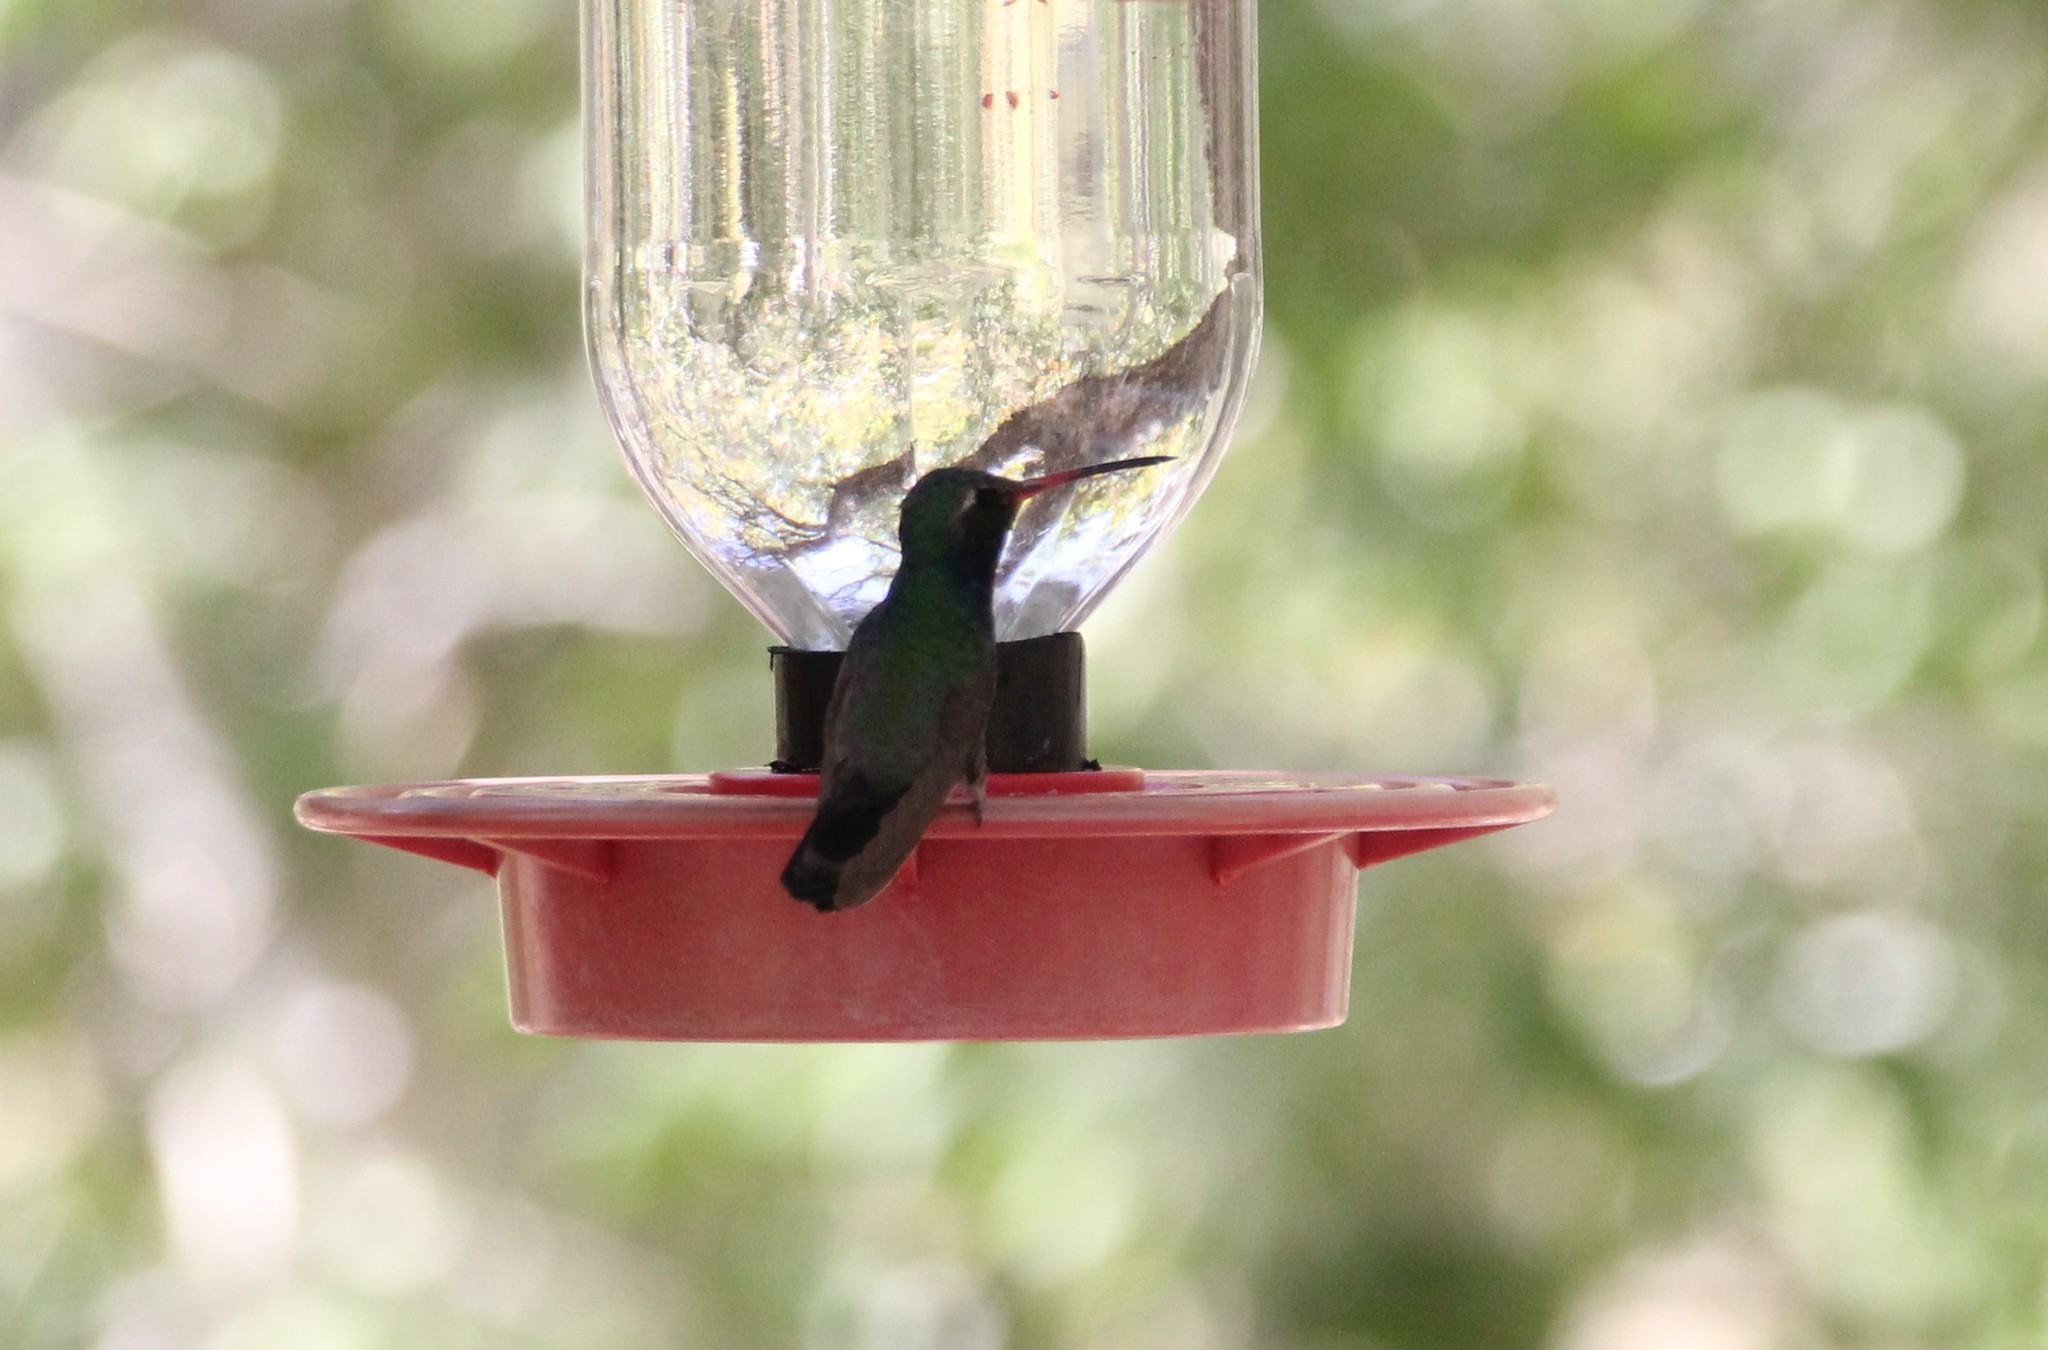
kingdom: Animalia
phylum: Chordata
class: Aves
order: Apodiformes
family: Trochilidae
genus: Cynanthus
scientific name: Cynanthus latirostris
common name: Broad-billed hummingbird
